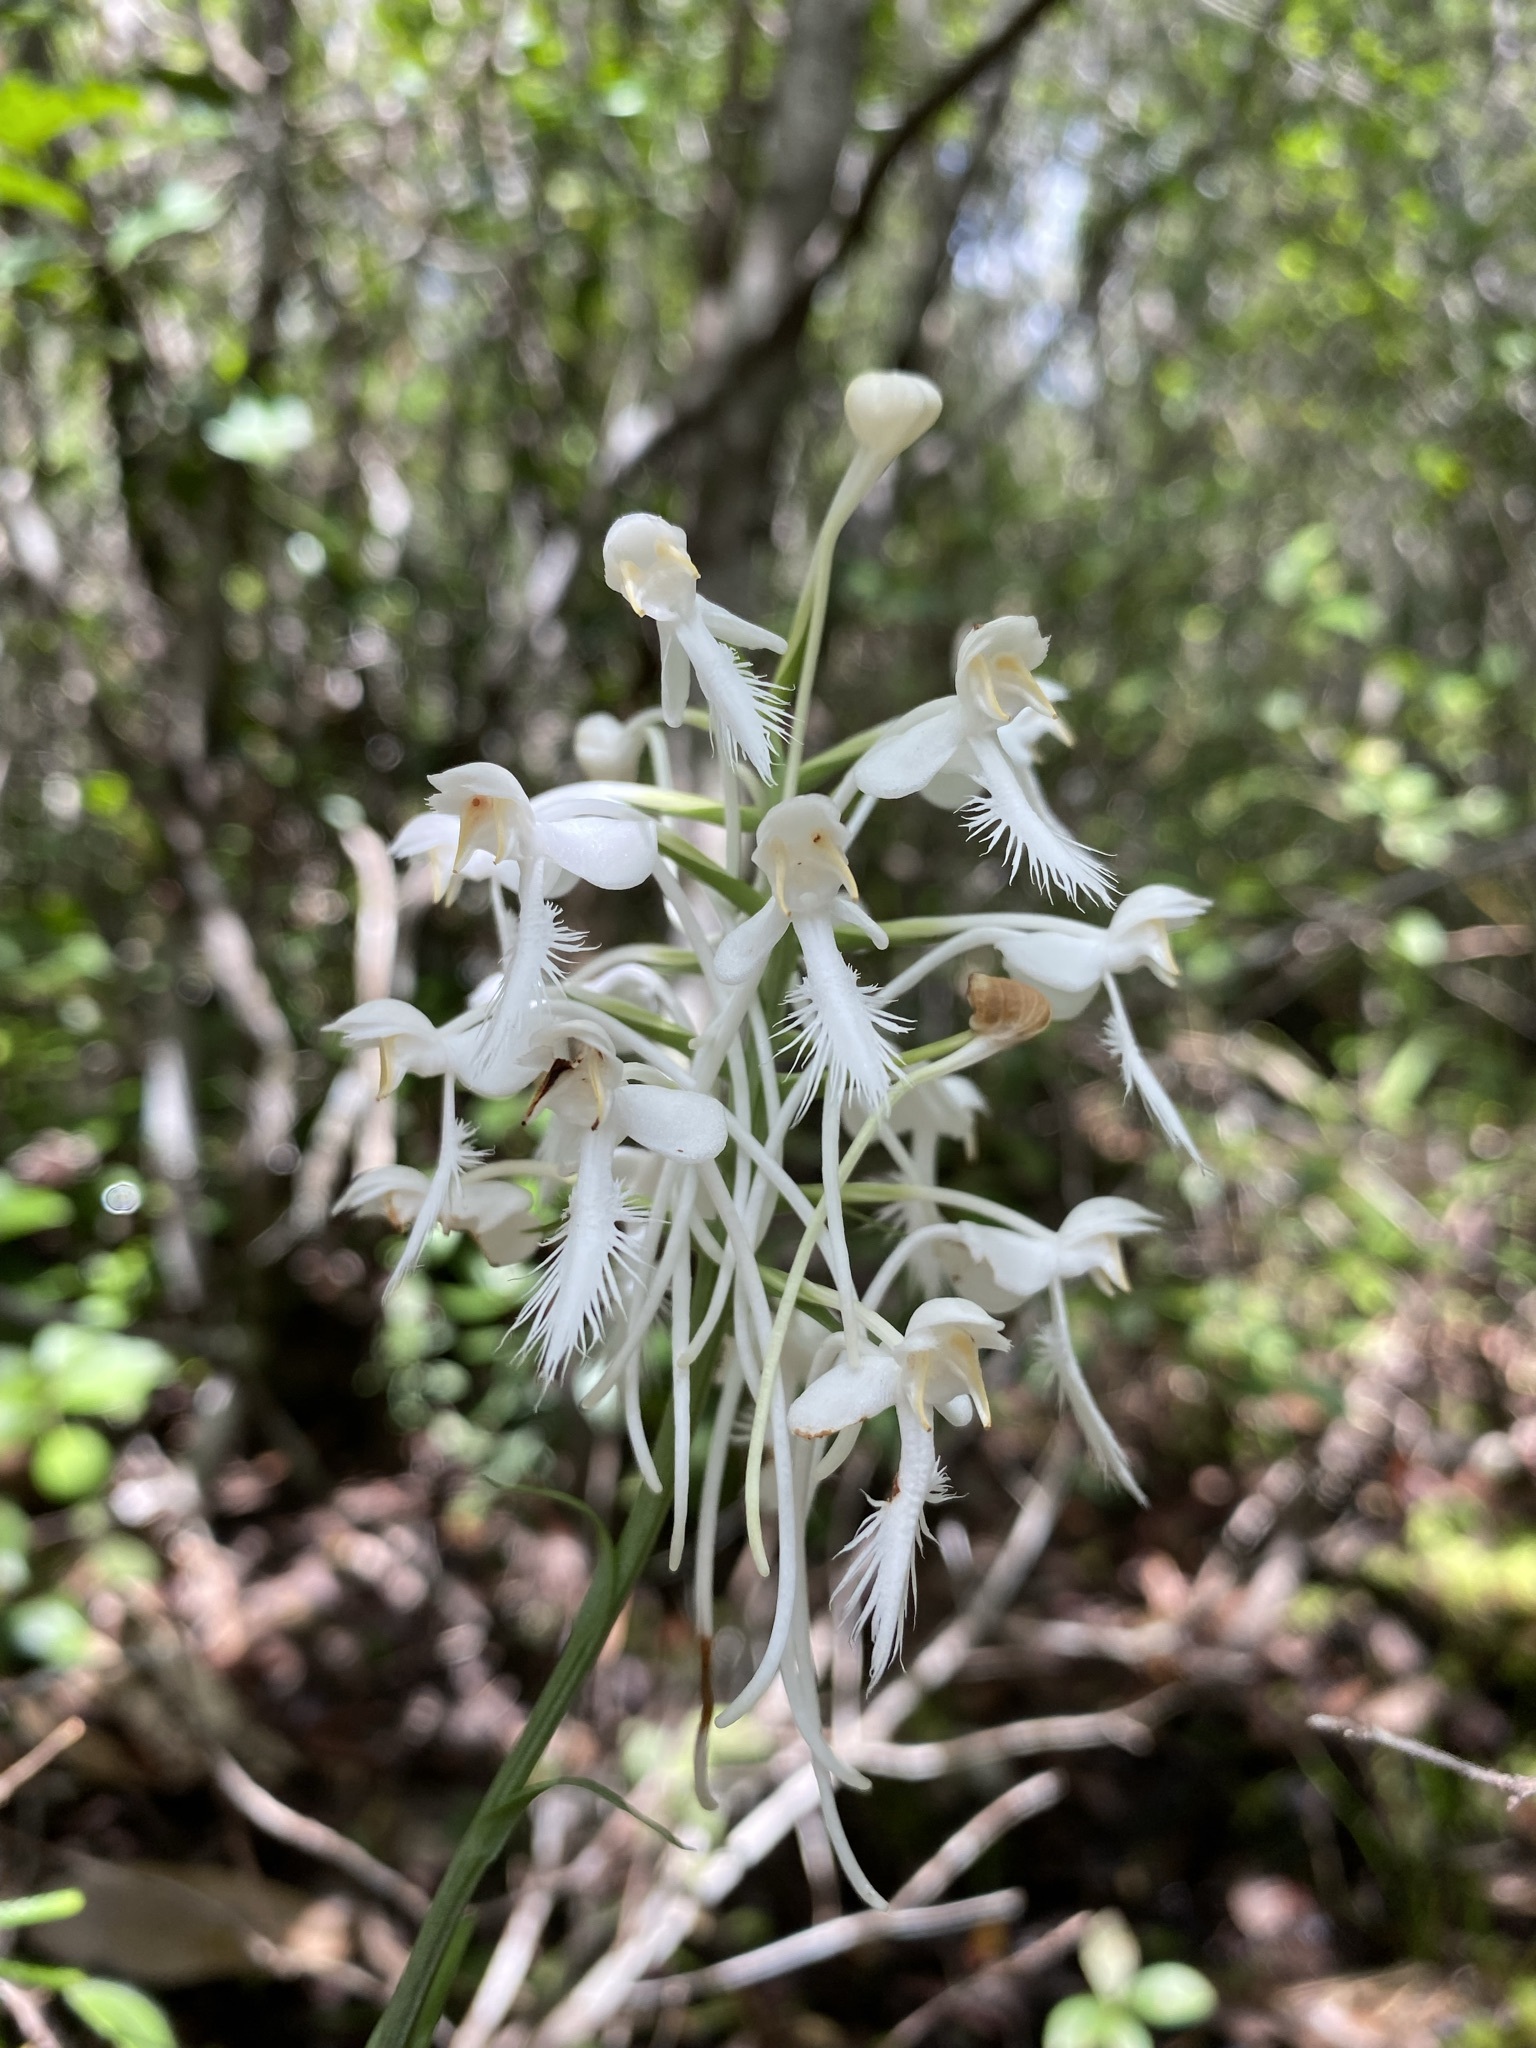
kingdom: Plantae
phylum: Tracheophyta
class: Liliopsida
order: Asparagales
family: Orchidaceae
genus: Platanthera
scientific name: Platanthera blephariglottis
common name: White fringed orchid
